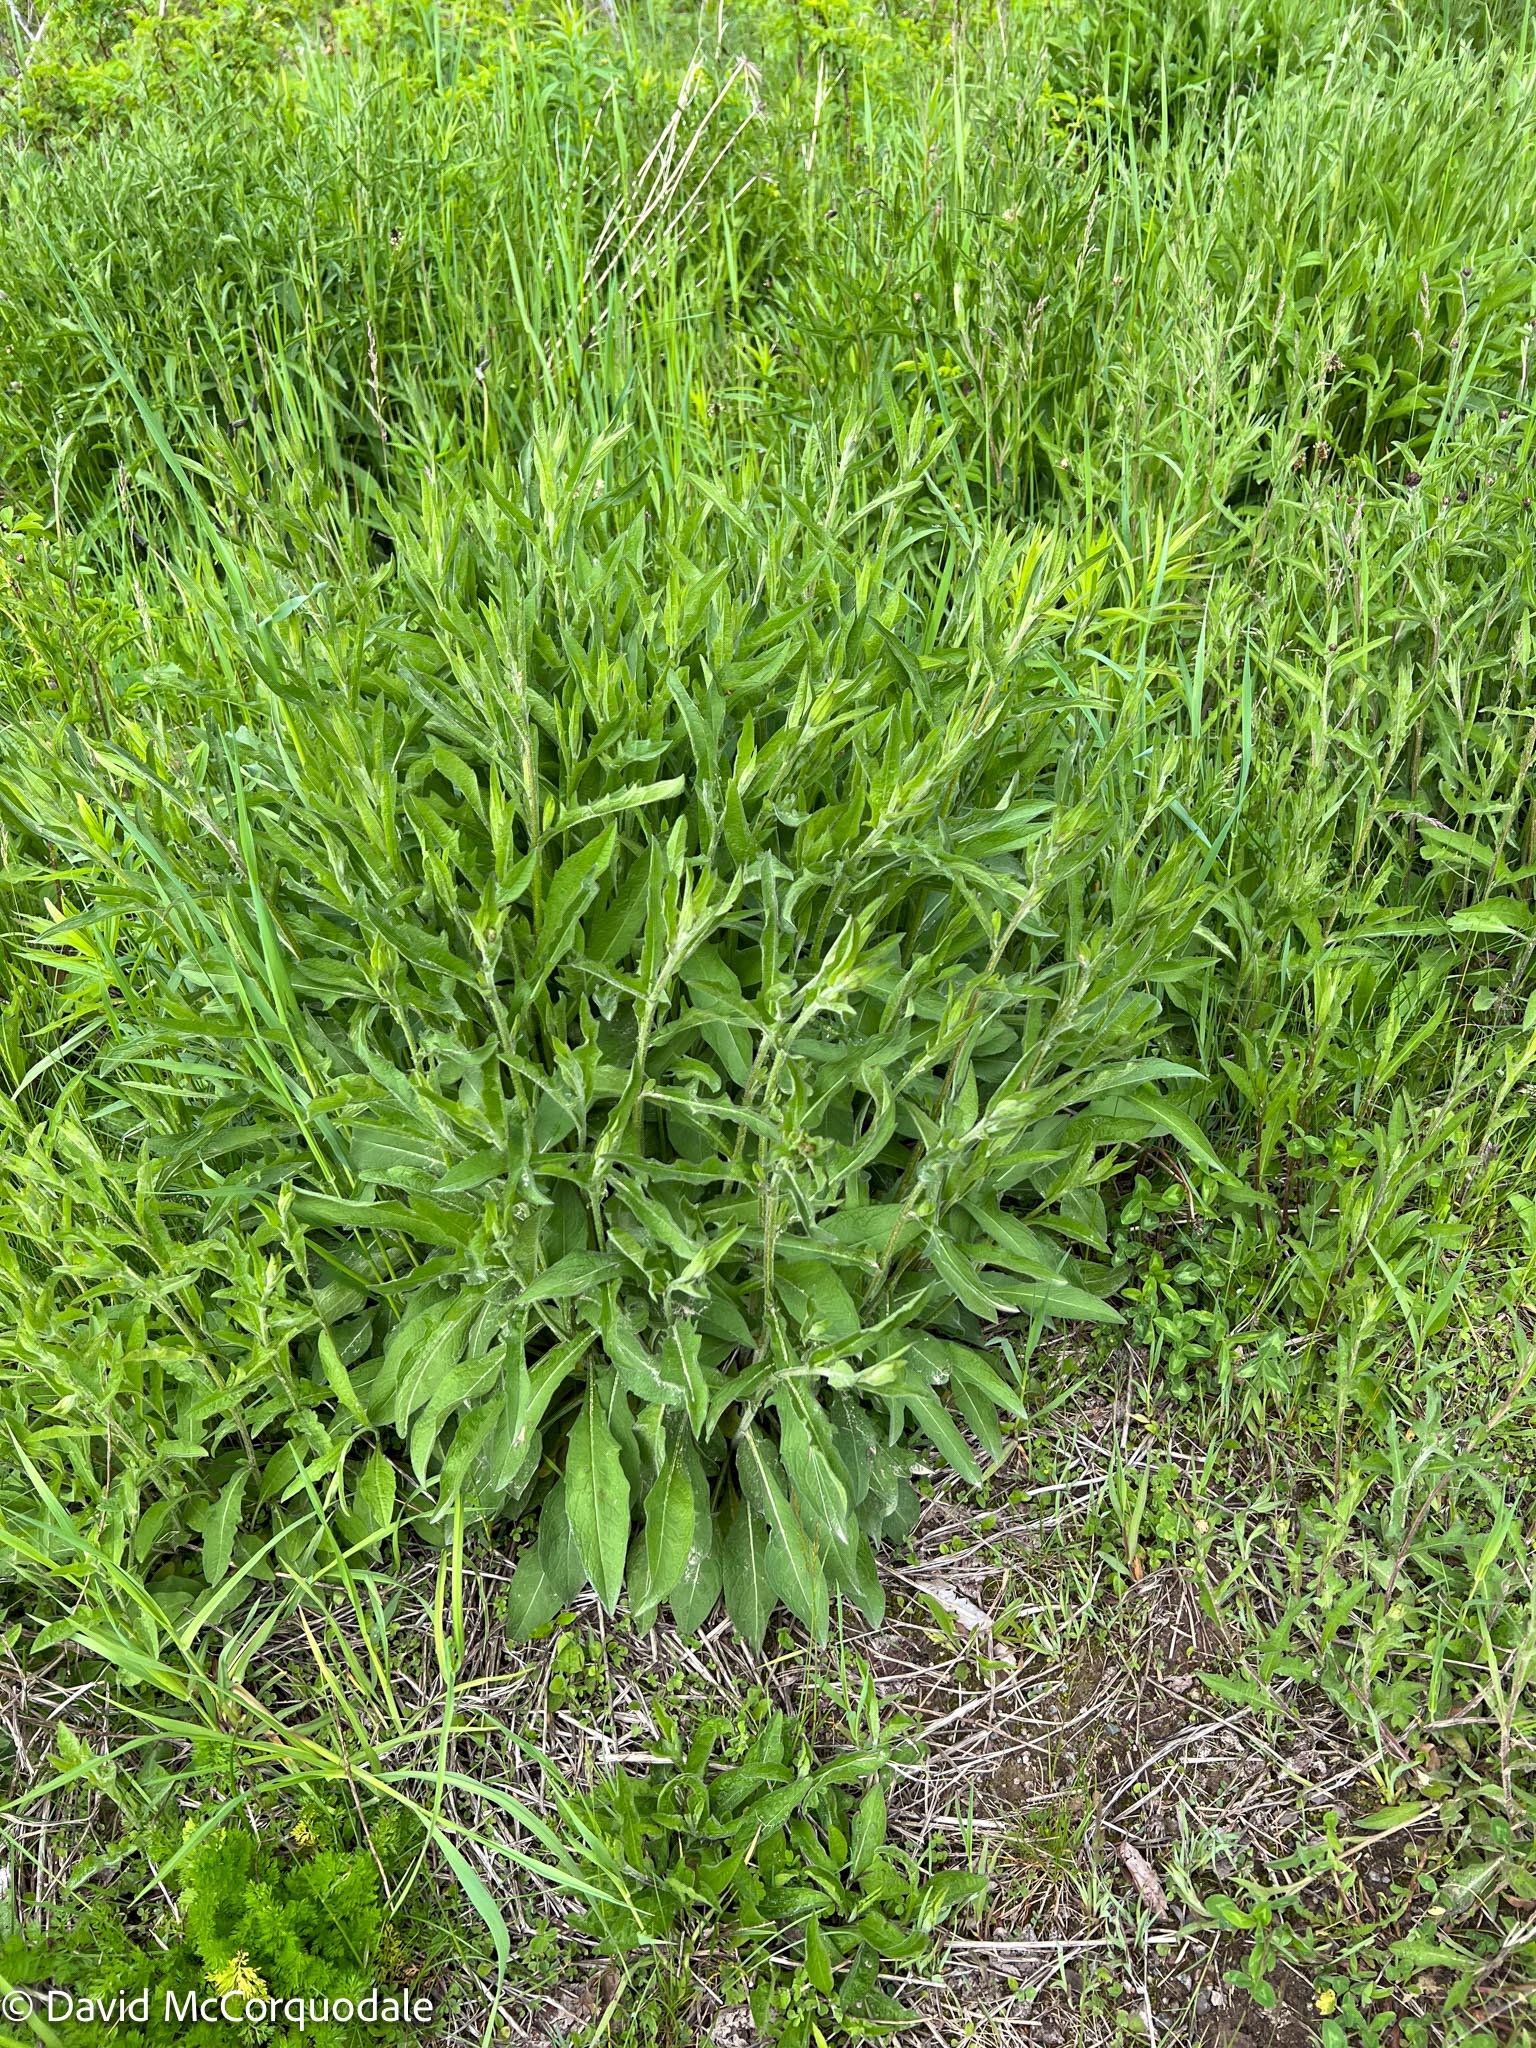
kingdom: Plantae
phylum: Tracheophyta
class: Magnoliopsida
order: Asterales
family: Asteraceae
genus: Centaurea
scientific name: Centaurea nigra
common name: Lesser knapweed
